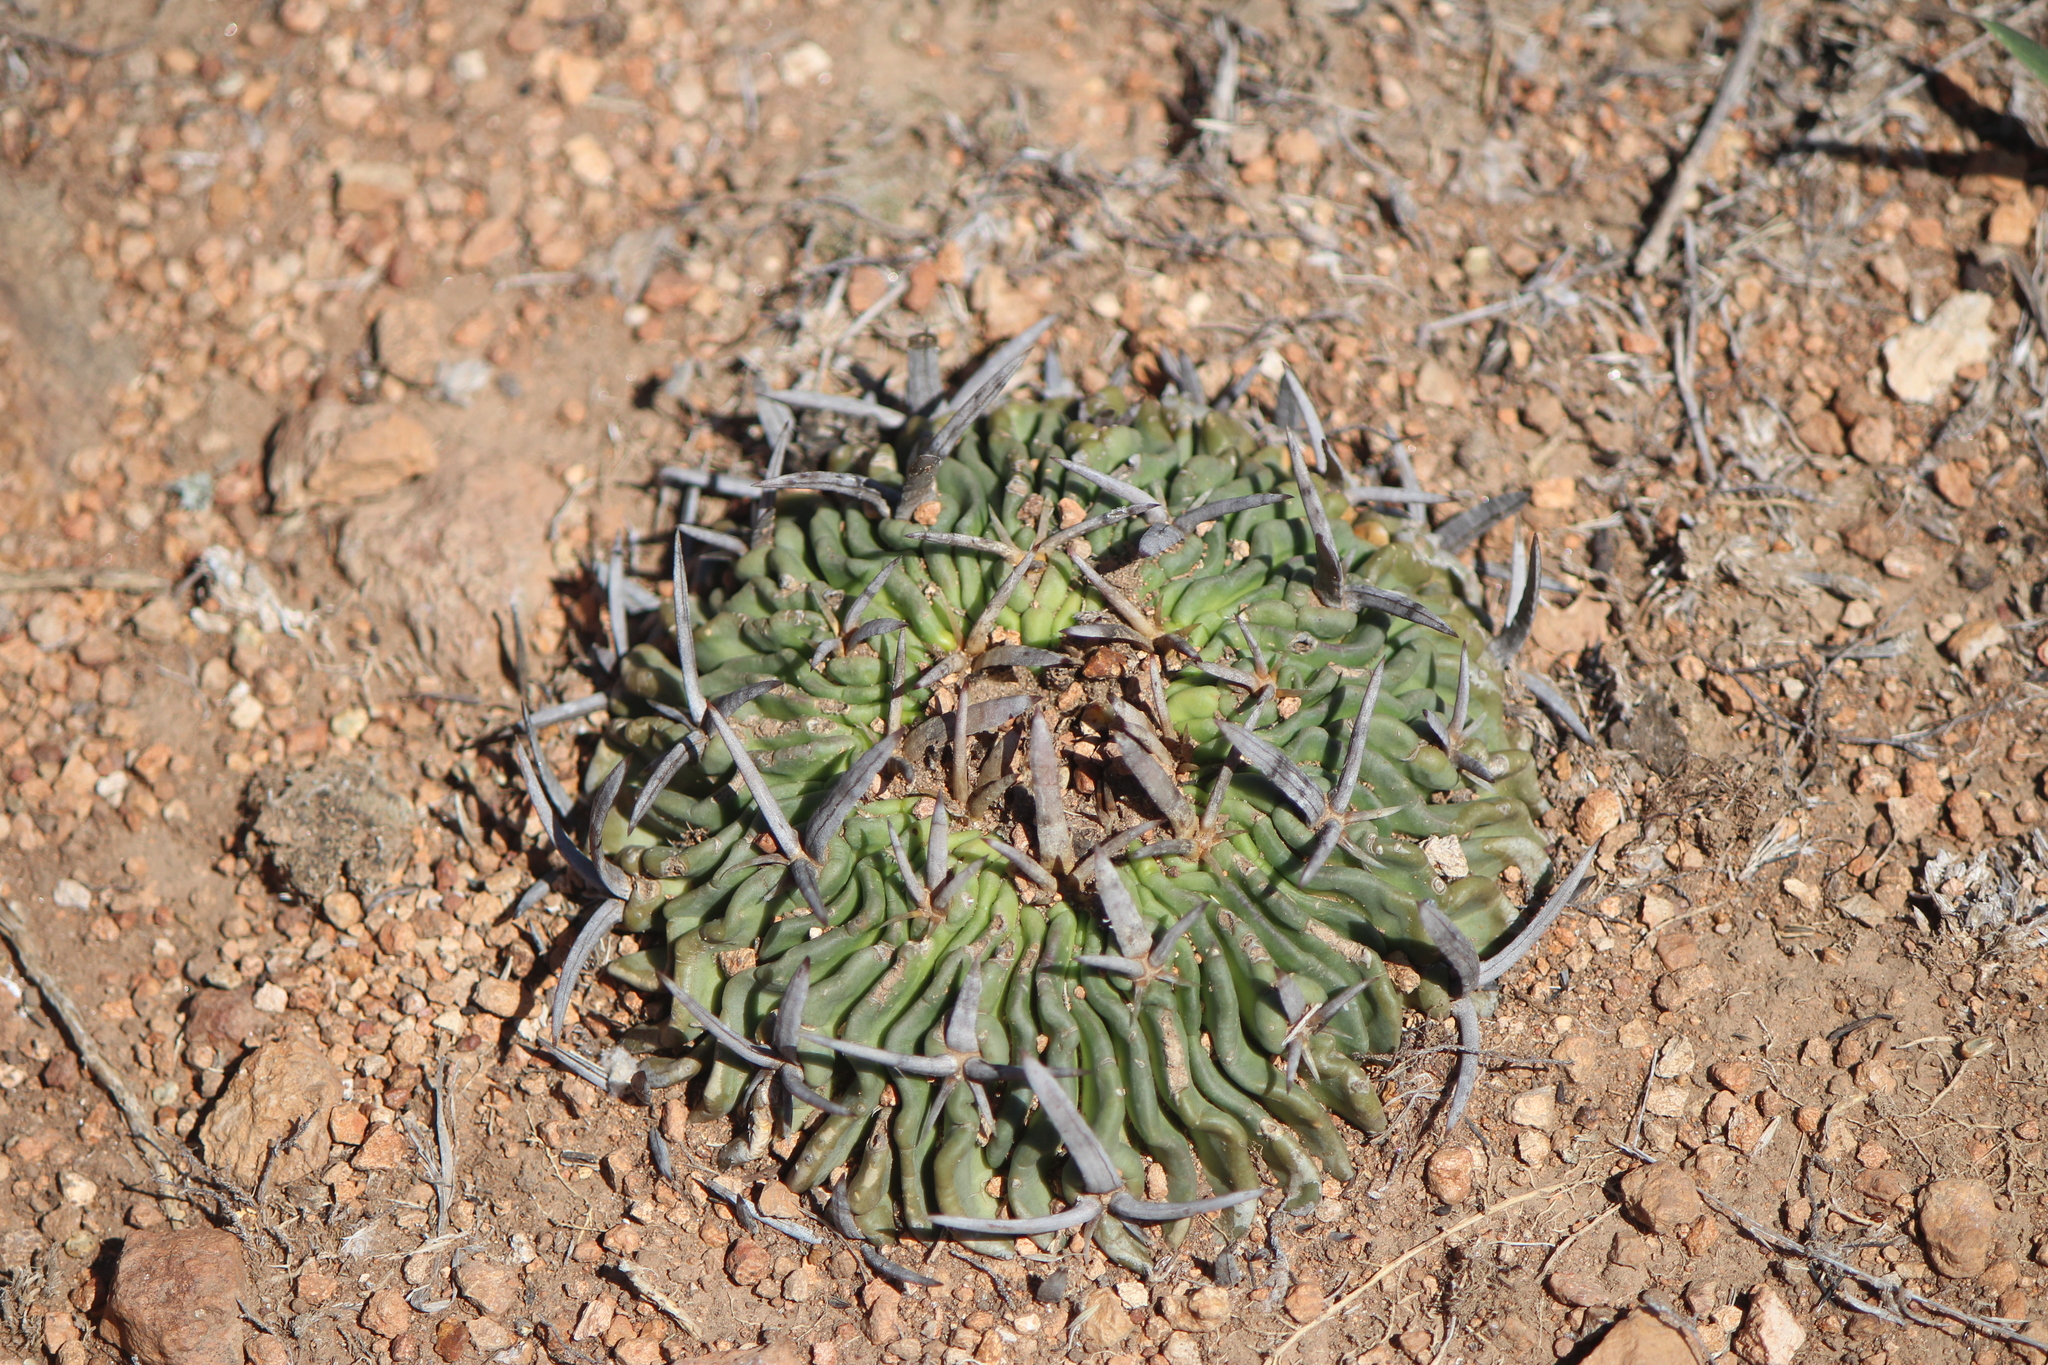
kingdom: Plantae
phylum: Tracheophyta
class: Magnoliopsida
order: Caryophyllales
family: Cactaceae
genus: Stenocactus
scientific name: Stenocactus obvallatus
